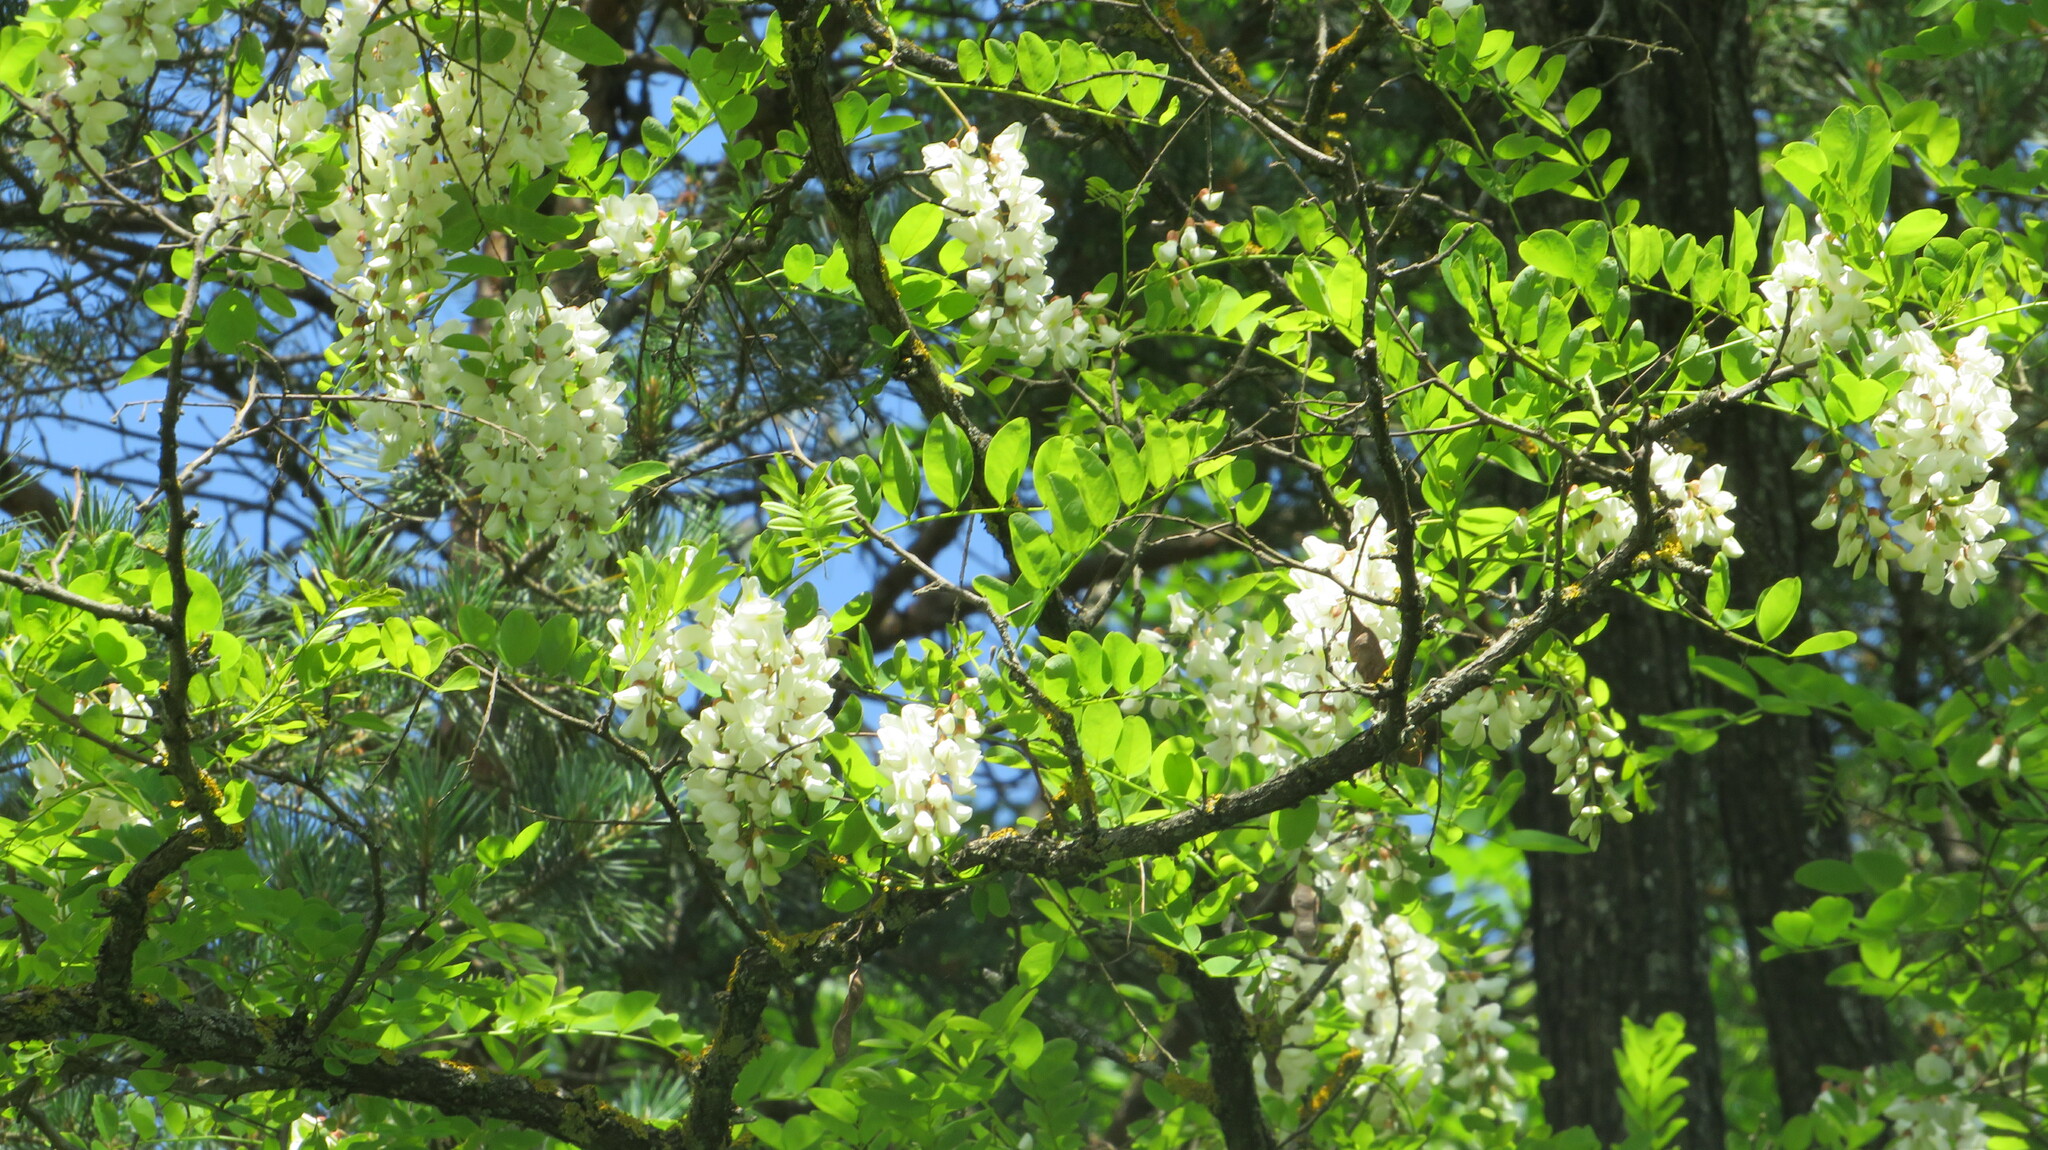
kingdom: Plantae
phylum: Tracheophyta
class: Magnoliopsida
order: Fabales
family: Fabaceae
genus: Robinia
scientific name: Robinia pseudoacacia
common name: Black locust
